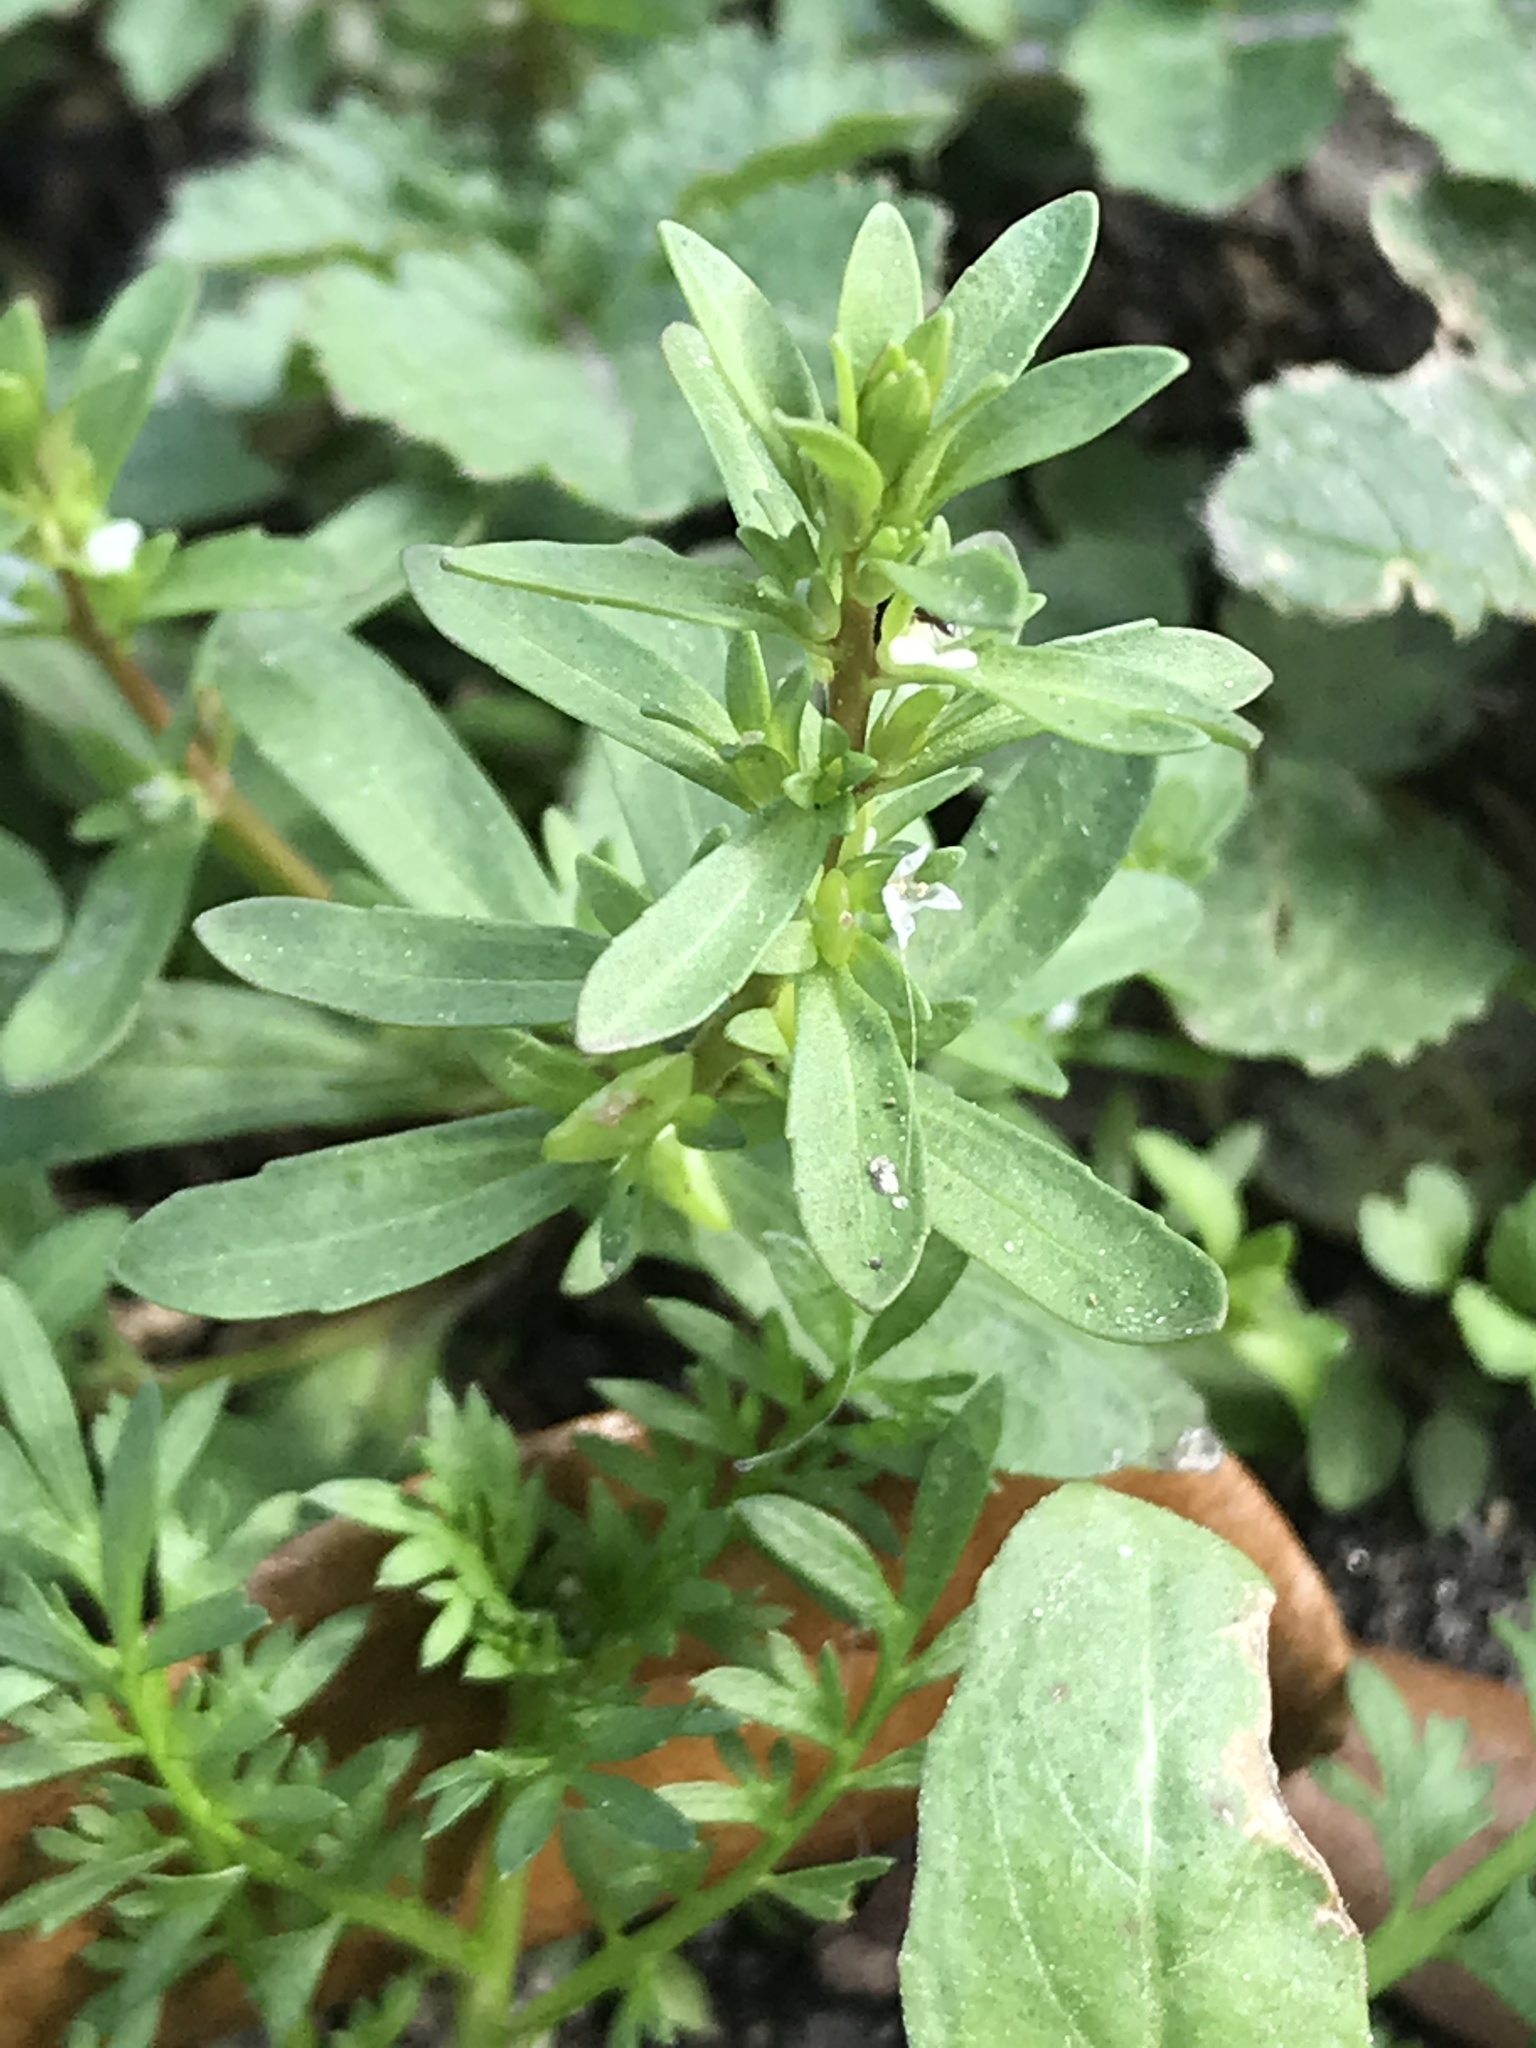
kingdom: Plantae
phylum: Tracheophyta
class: Magnoliopsida
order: Lamiales
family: Plantaginaceae
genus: Veronica
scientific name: Veronica peregrina
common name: Neckweed
